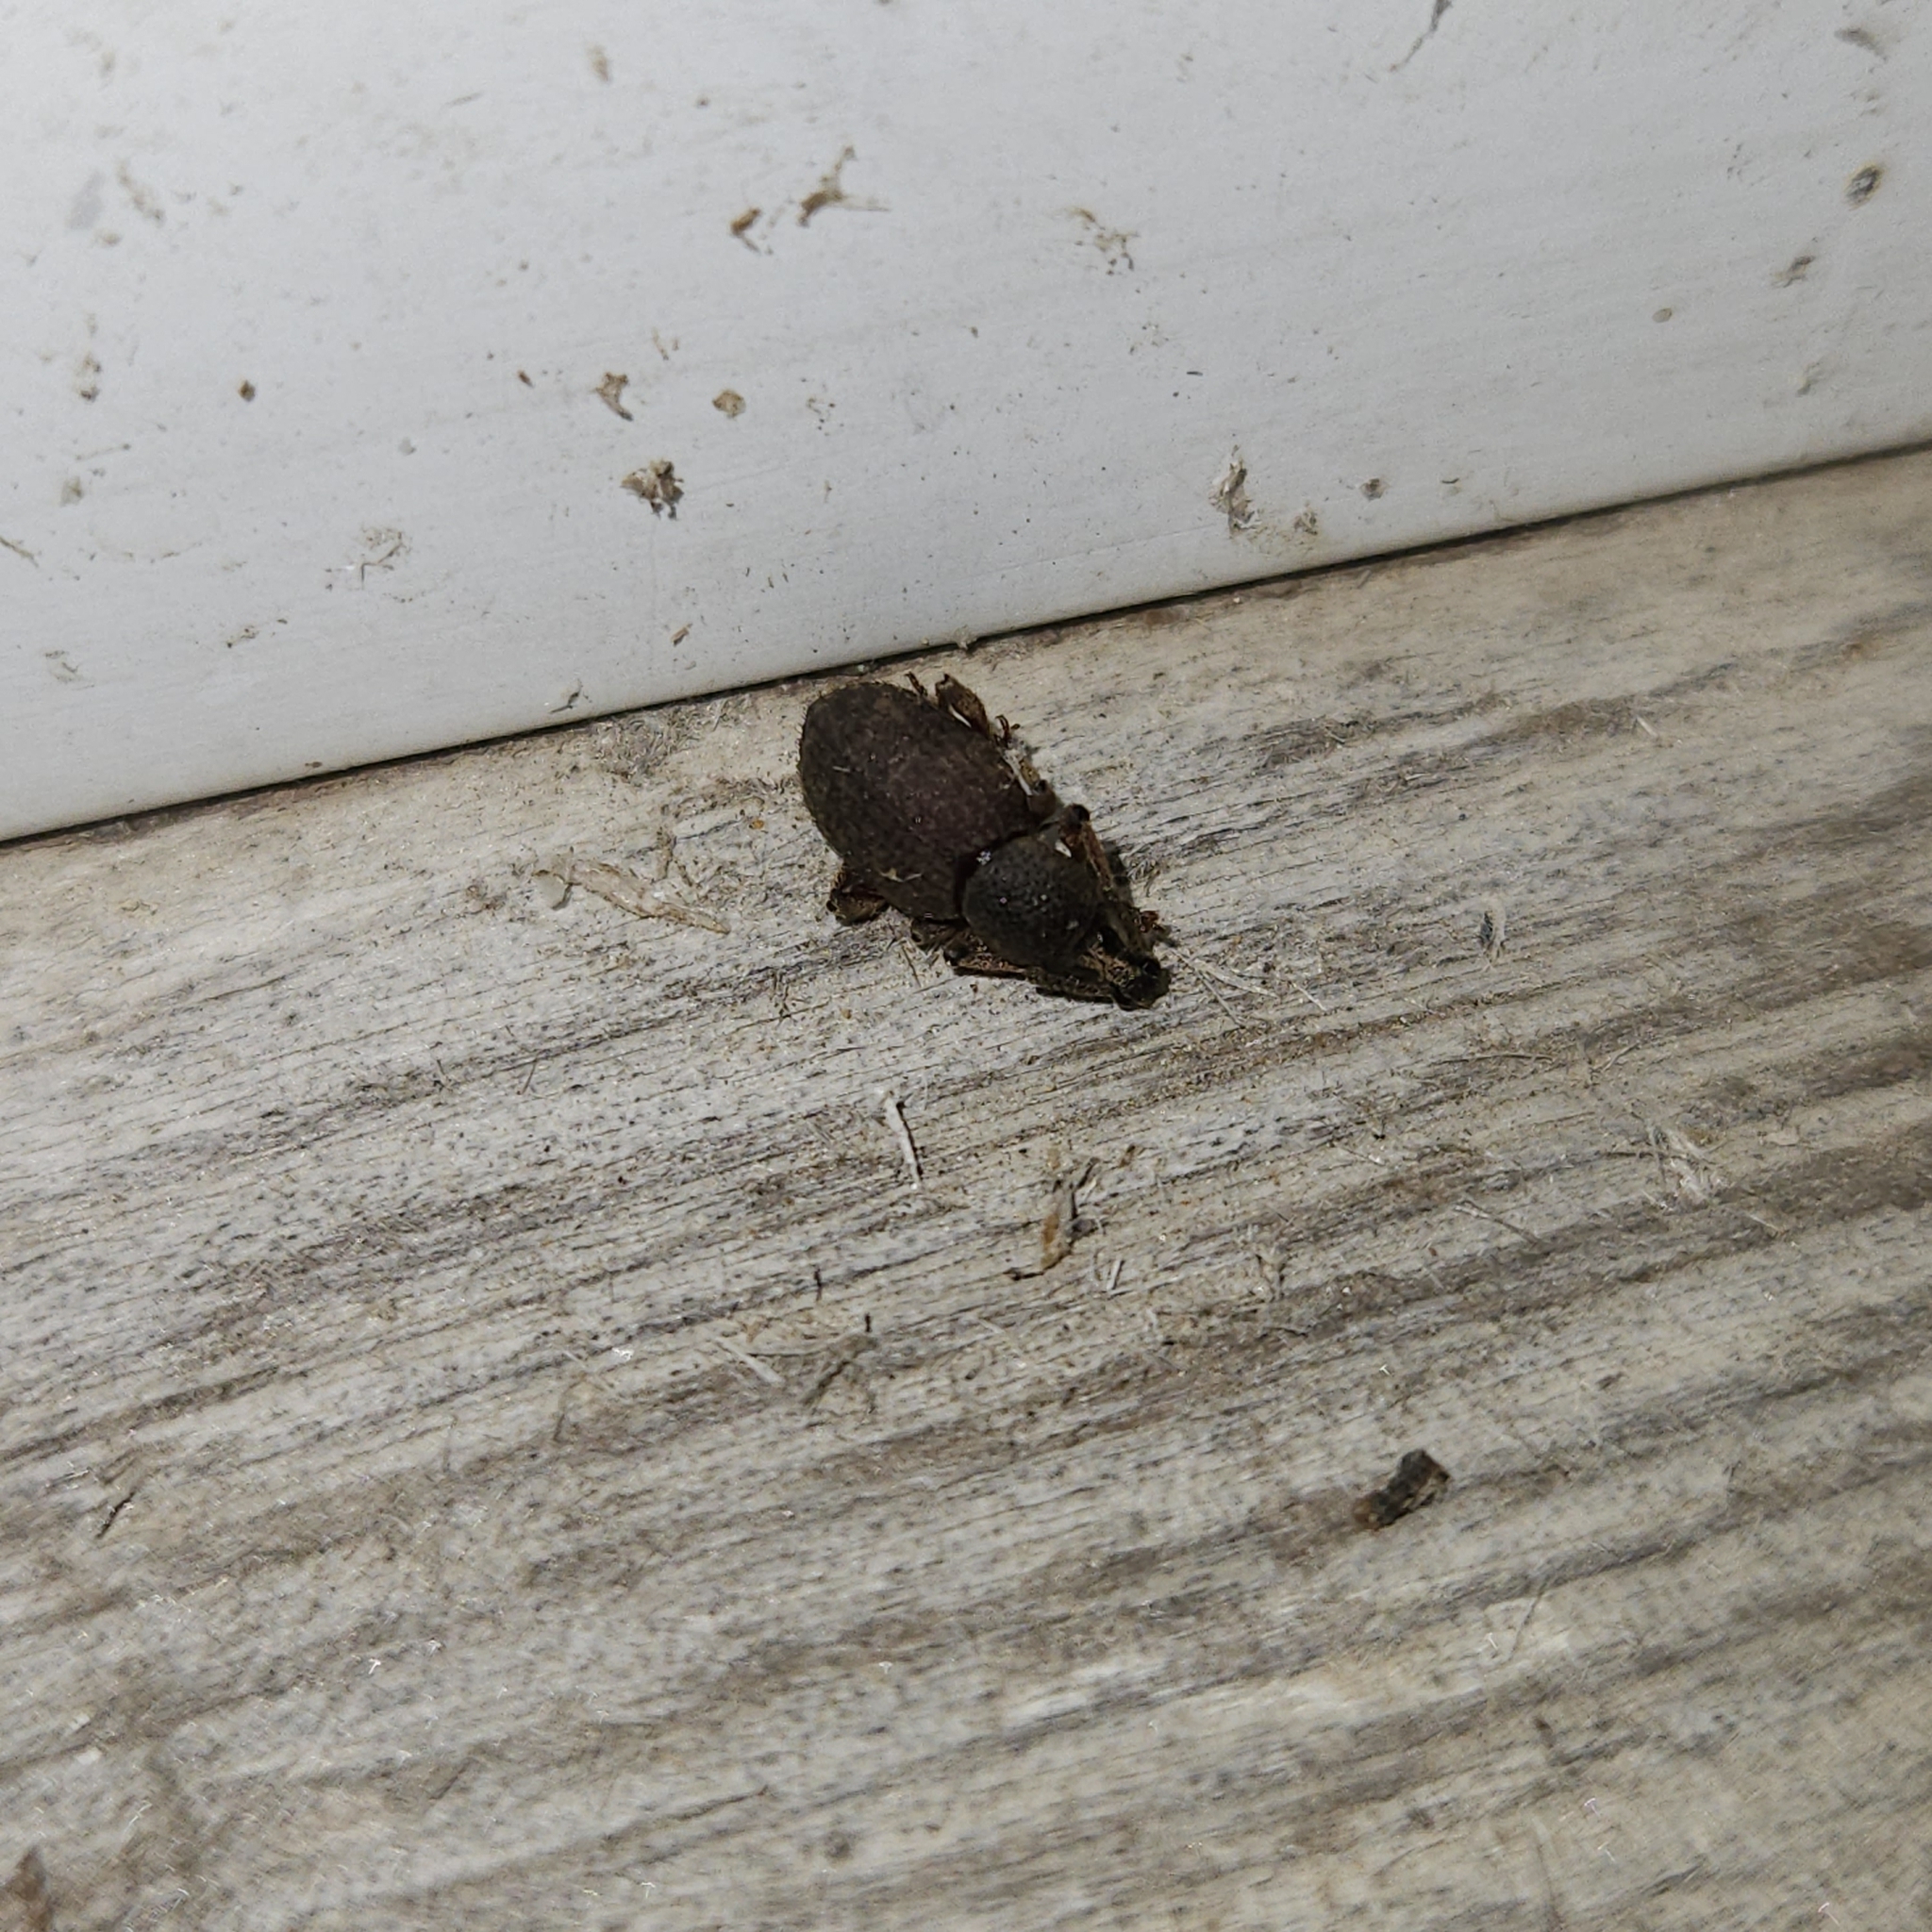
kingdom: Animalia
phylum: Arthropoda
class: Insecta
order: Coleoptera
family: Curculionidae
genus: Otiorhynchus
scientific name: Otiorhynchus singularis
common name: Clay-coloured weevil
